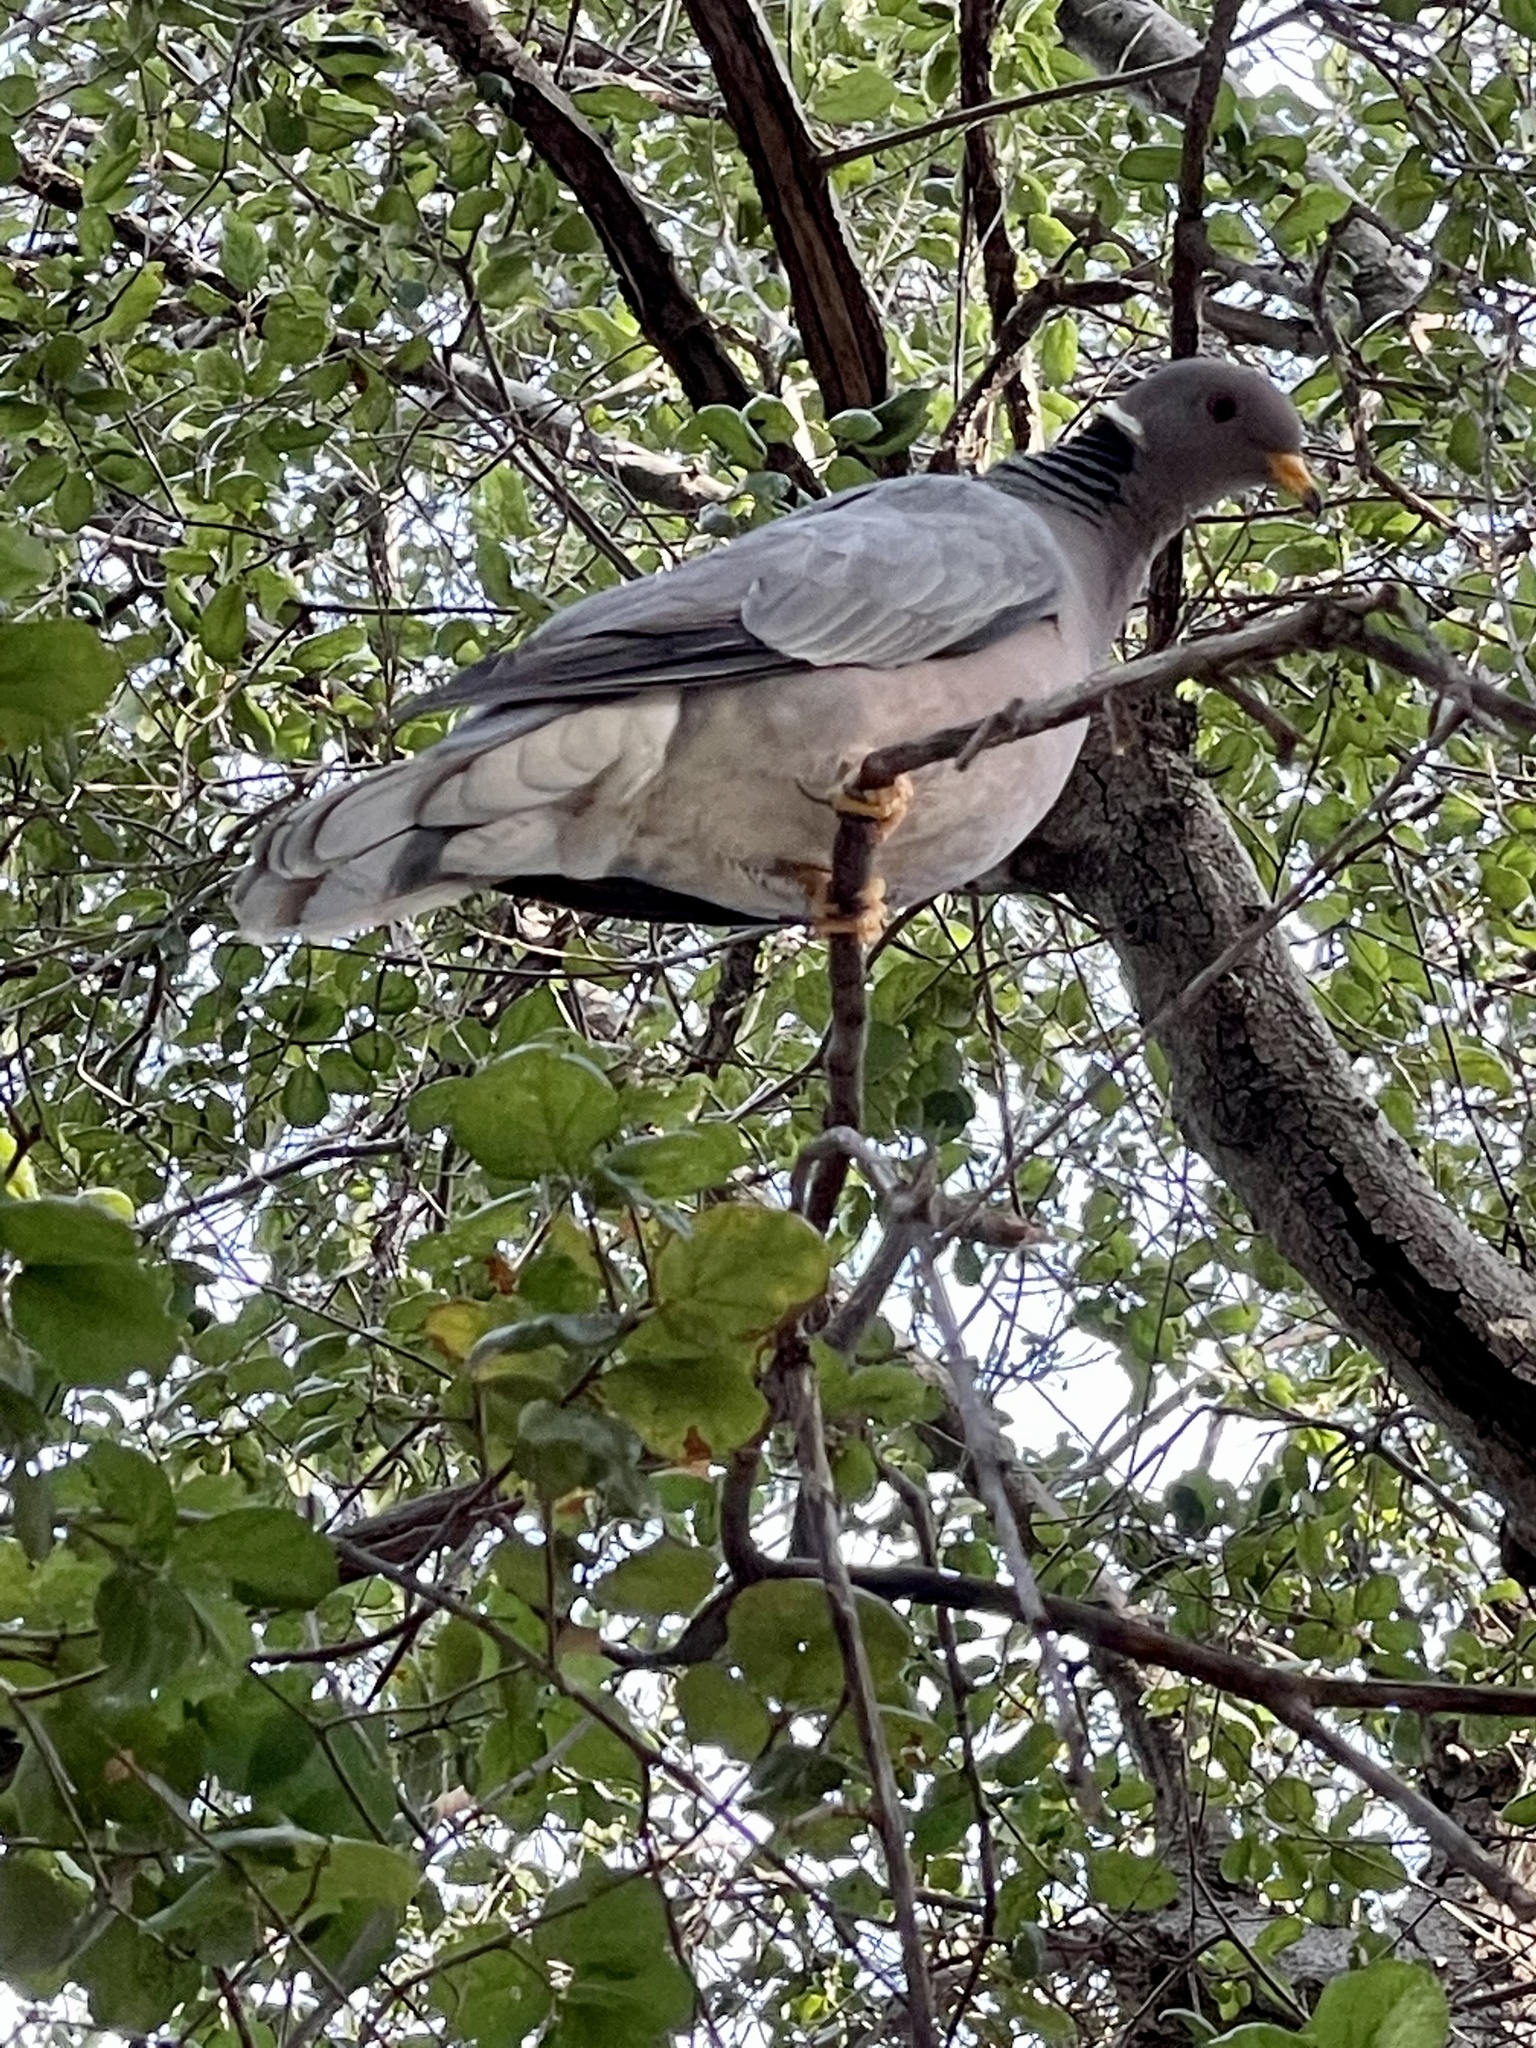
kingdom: Animalia
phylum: Chordata
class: Aves
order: Columbiformes
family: Columbidae
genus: Patagioenas
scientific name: Patagioenas fasciata
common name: Band-tailed pigeon
